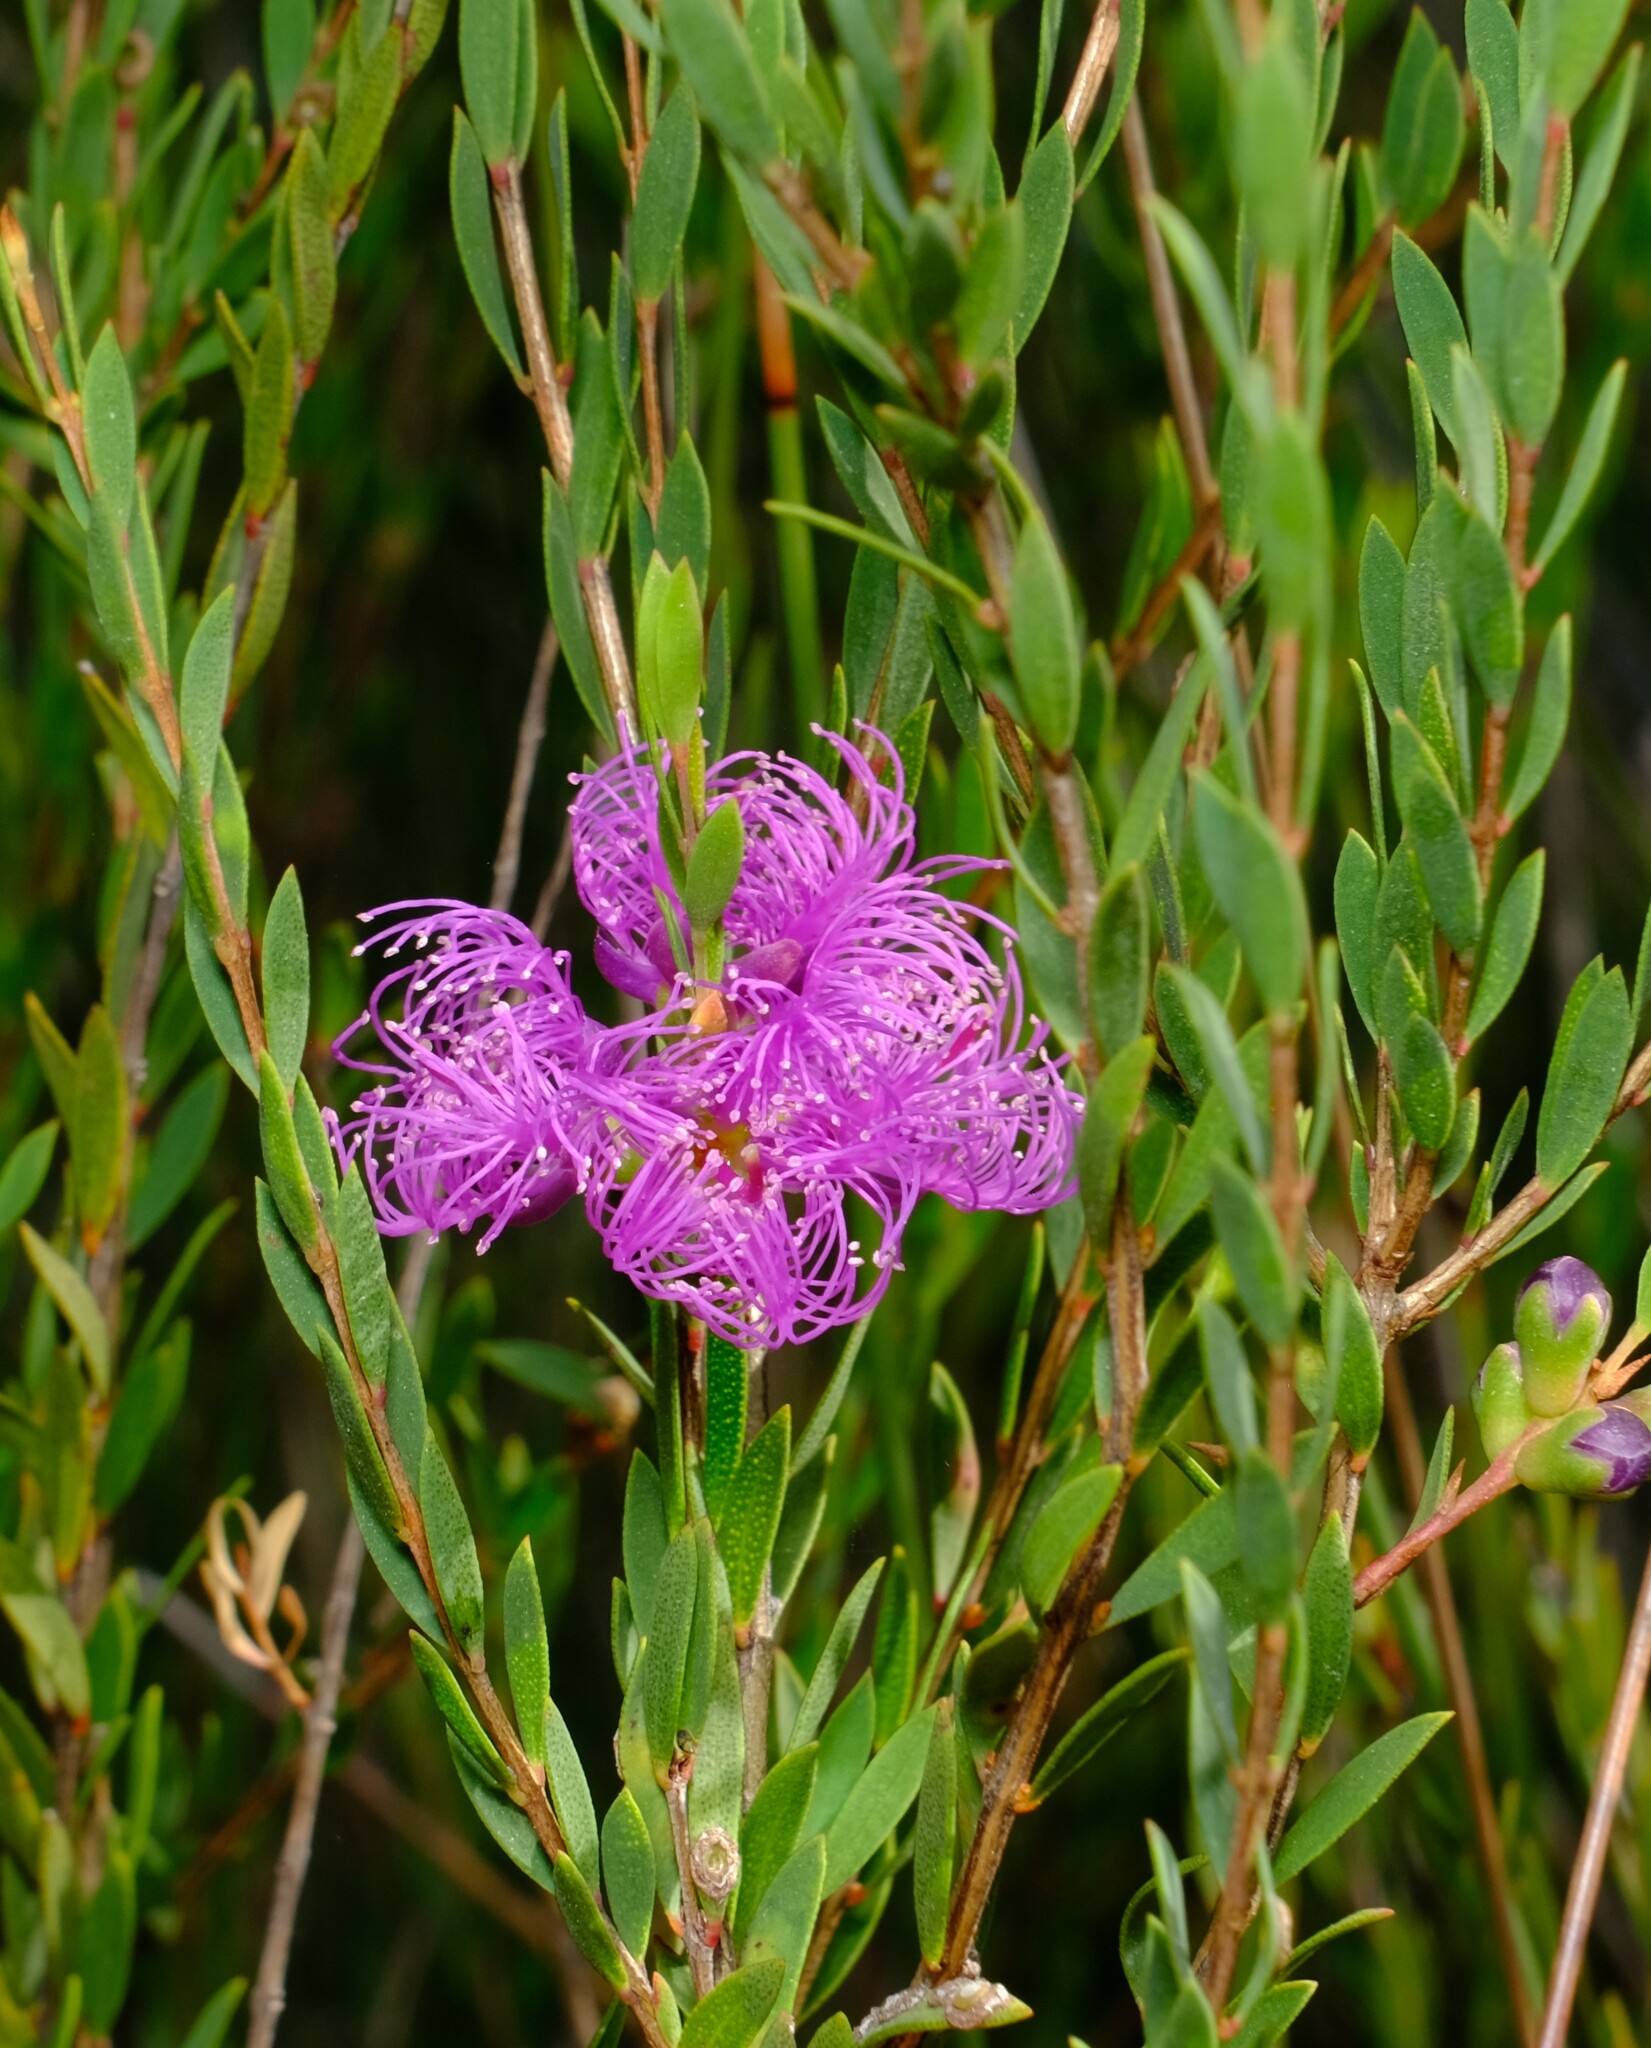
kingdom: Plantae
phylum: Tracheophyta
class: Magnoliopsida
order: Myrtales
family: Myrtaceae
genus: Melaleuca
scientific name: Melaleuca thymifolia
